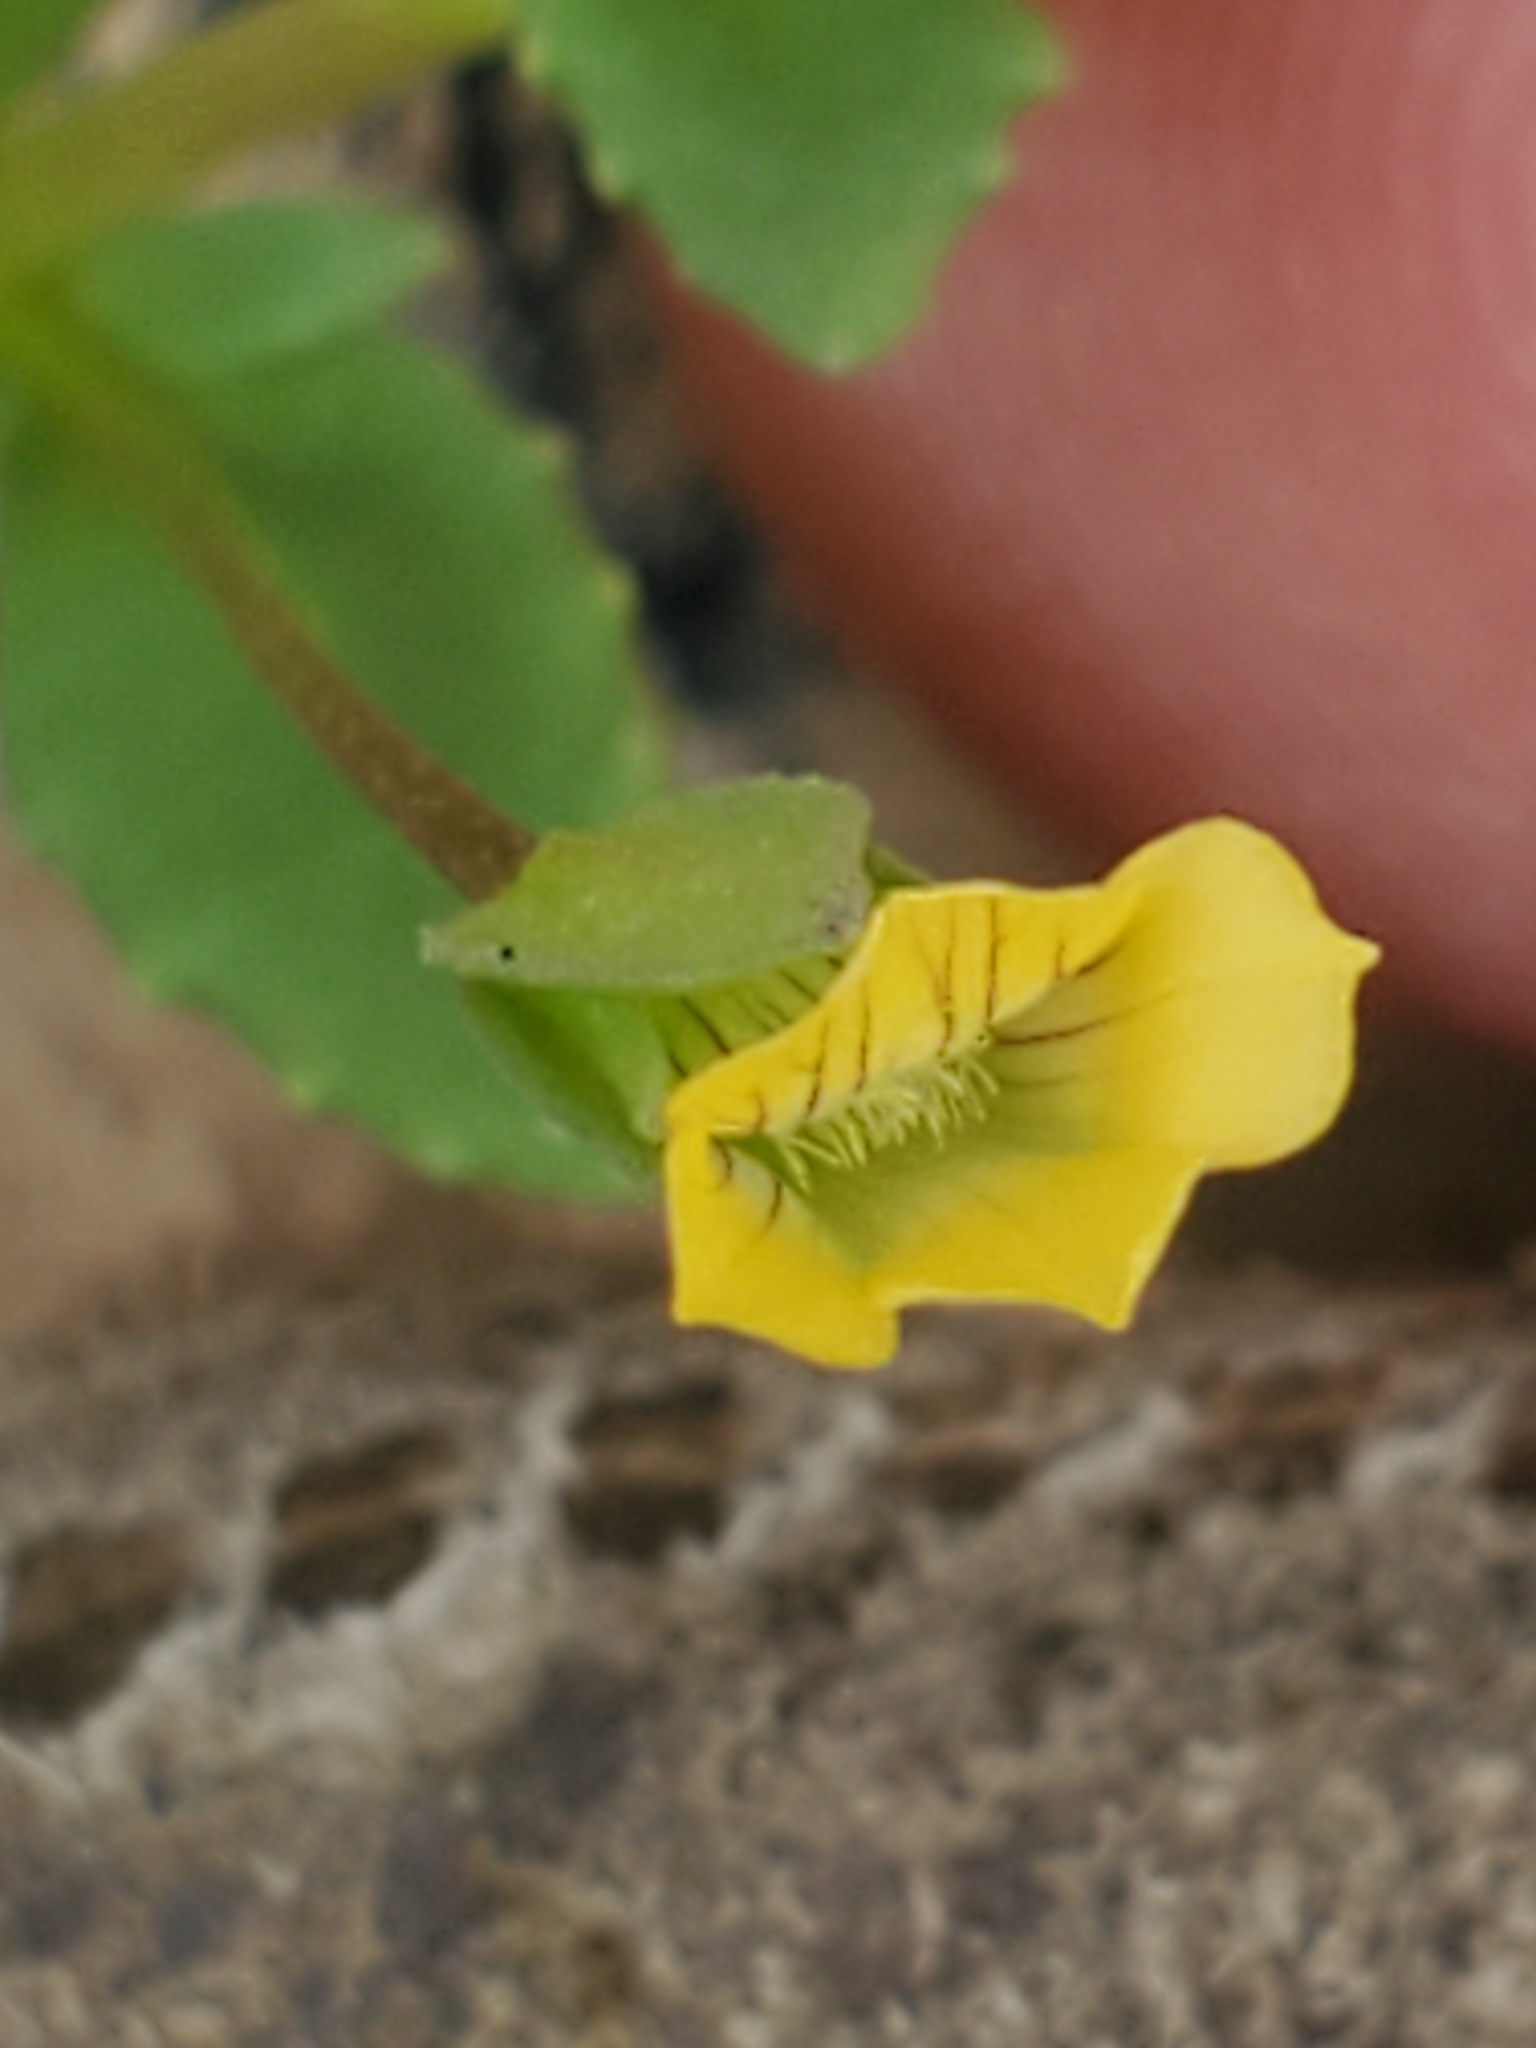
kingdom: Plantae
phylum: Tracheophyta
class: Magnoliopsida
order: Lamiales
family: Plantaginaceae
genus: Mecardonia
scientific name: Mecardonia procumbens
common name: Baby jump-up
